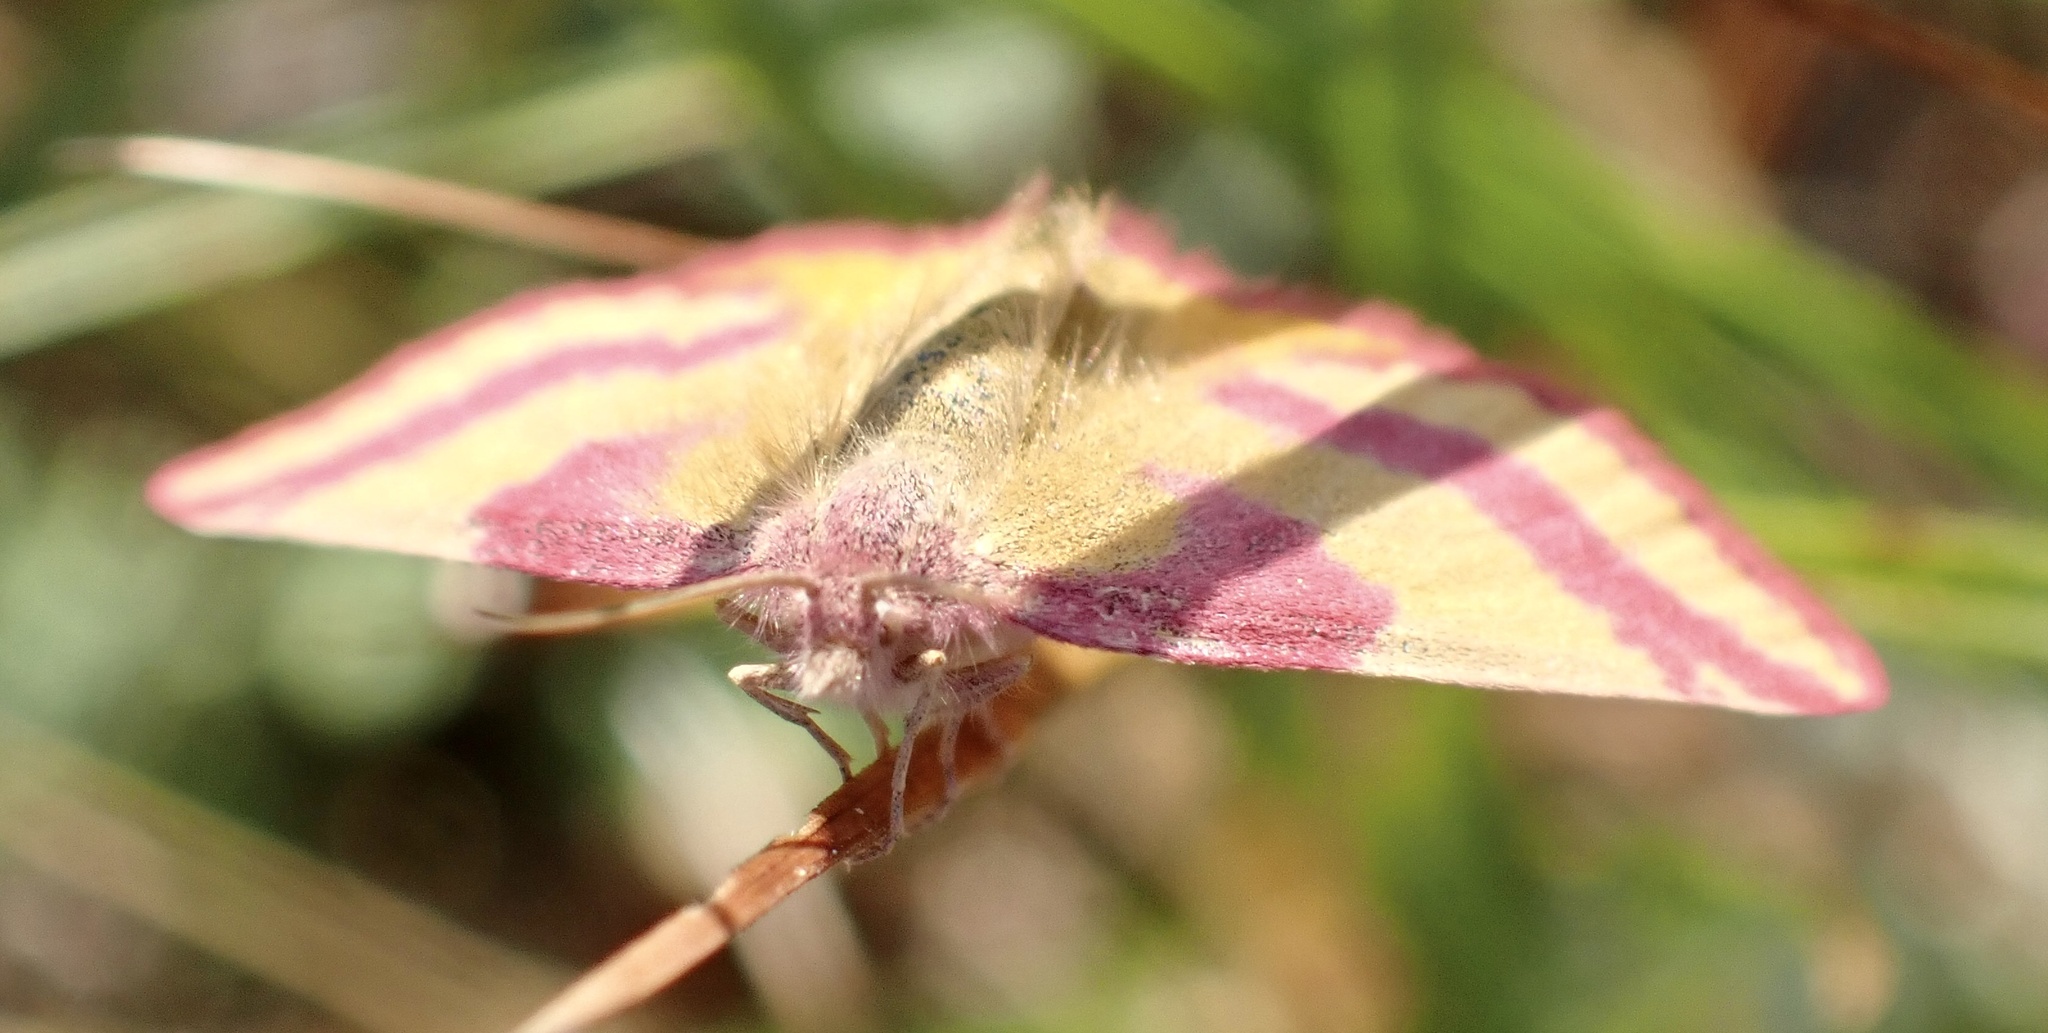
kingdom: Animalia
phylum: Arthropoda
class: Insecta
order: Lepidoptera
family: Geometridae
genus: Lythria
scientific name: Lythria cruentaria
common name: Purple-barred yellow
